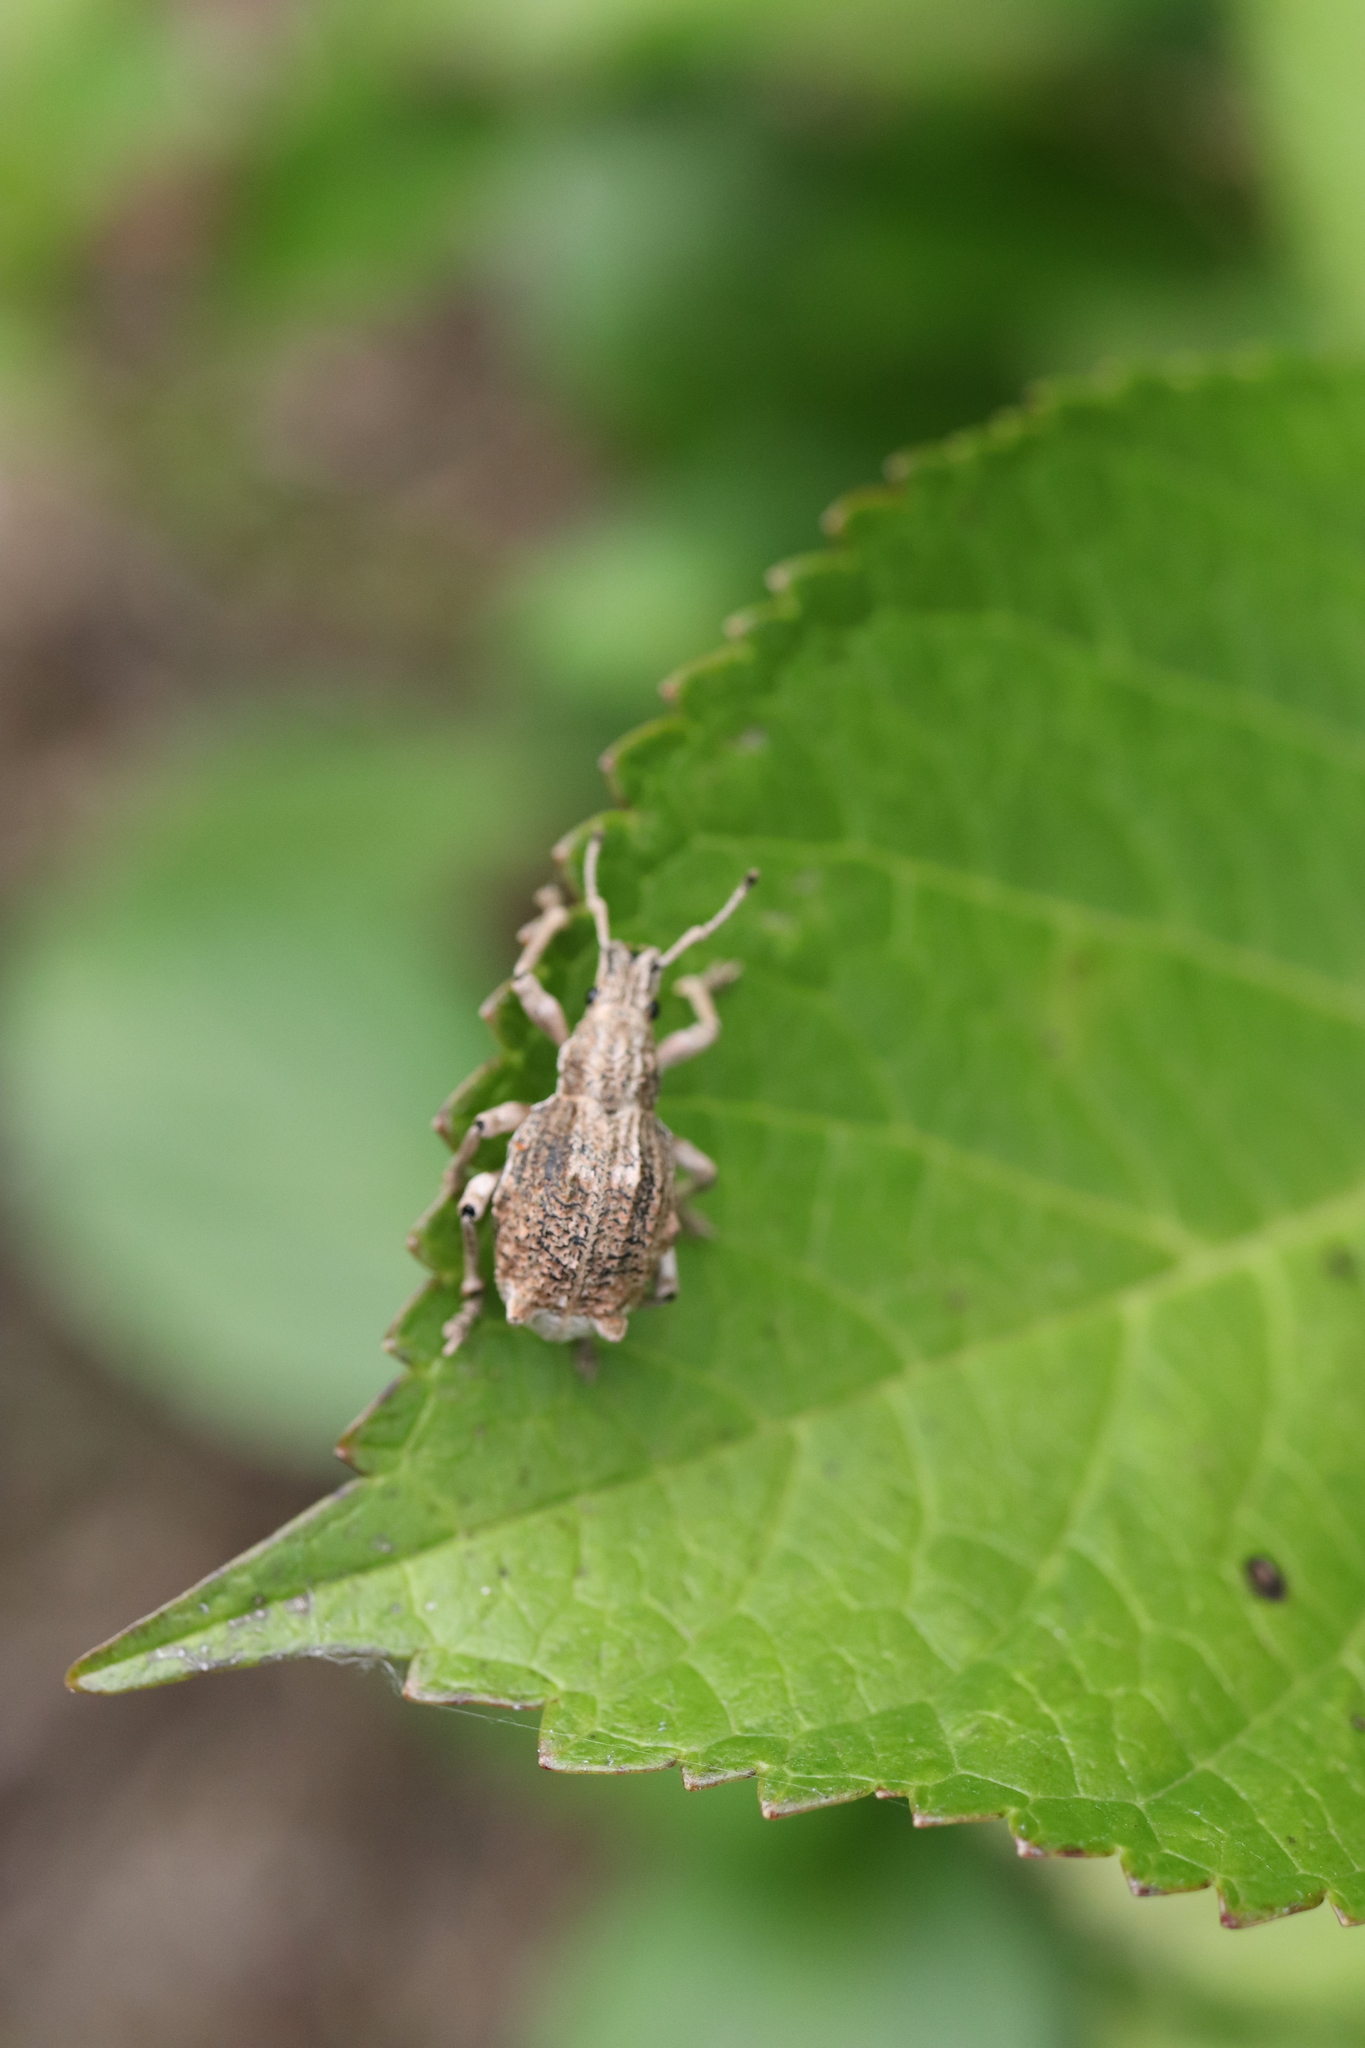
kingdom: Animalia
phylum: Arthropoda
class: Insecta
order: Coleoptera
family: Curculionidae
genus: Episomus
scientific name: Episomus turritus
